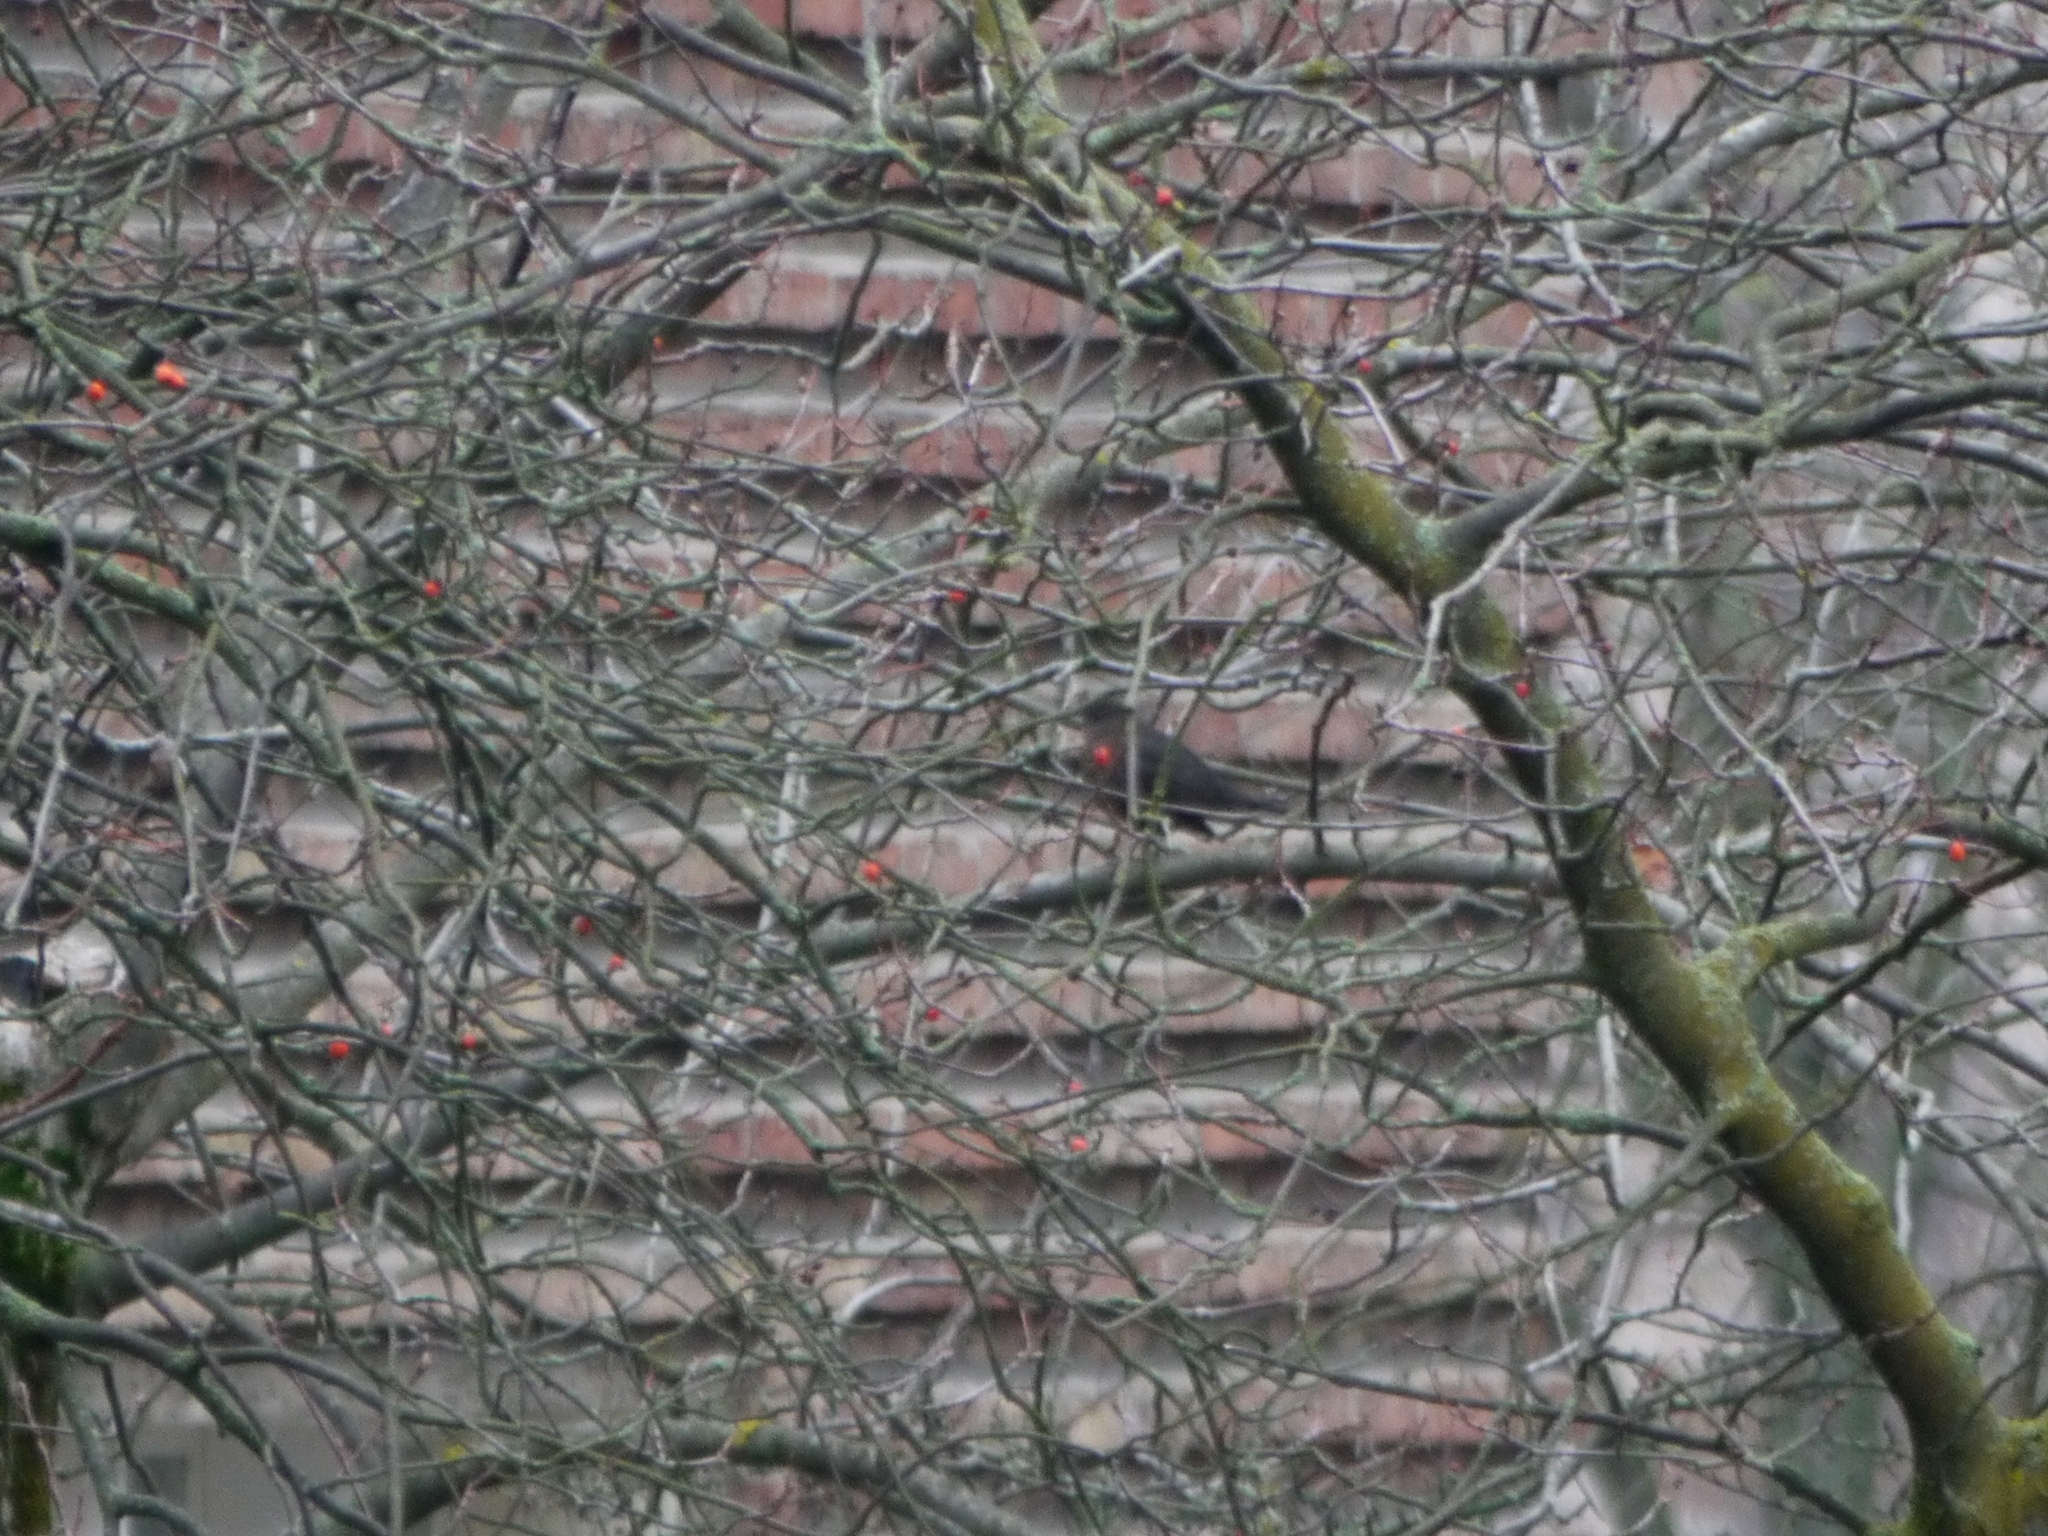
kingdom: Animalia
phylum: Chordata
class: Aves
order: Passeriformes
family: Turdidae
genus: Turdus
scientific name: Turdus merula
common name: Common blackbird
